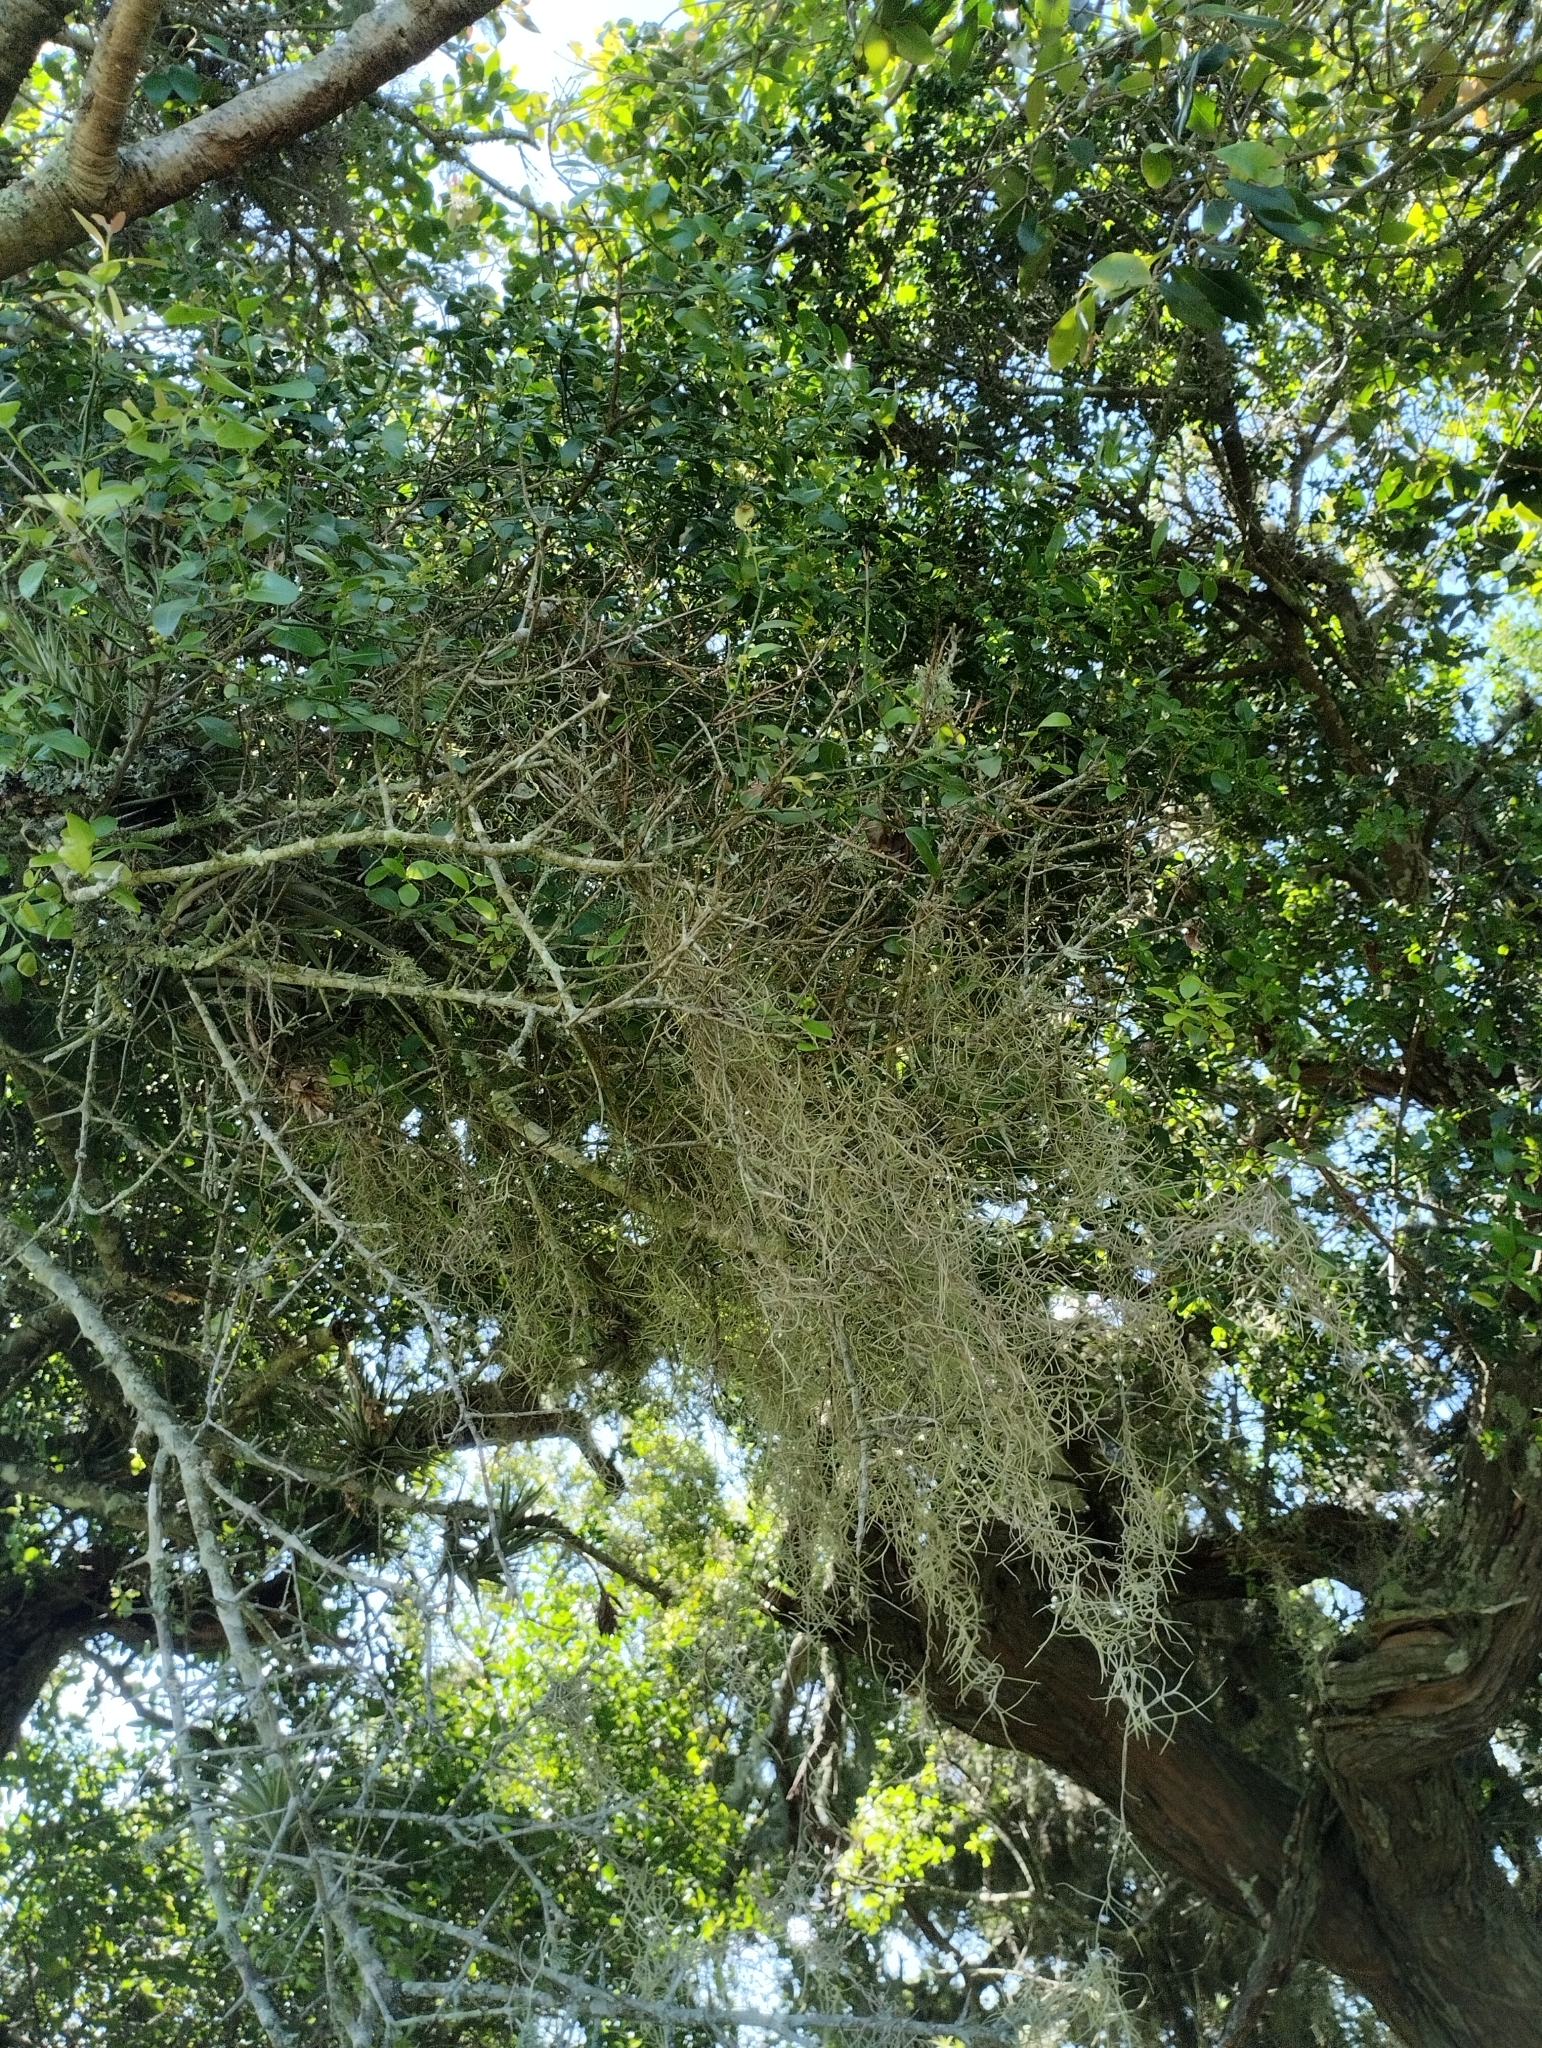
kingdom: Plantae
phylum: Tracheophyta
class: Liliopsida
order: Poales
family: Bromeliaceae
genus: Tillandsia
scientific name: Tillandsia usneoides
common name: Spanish moss
